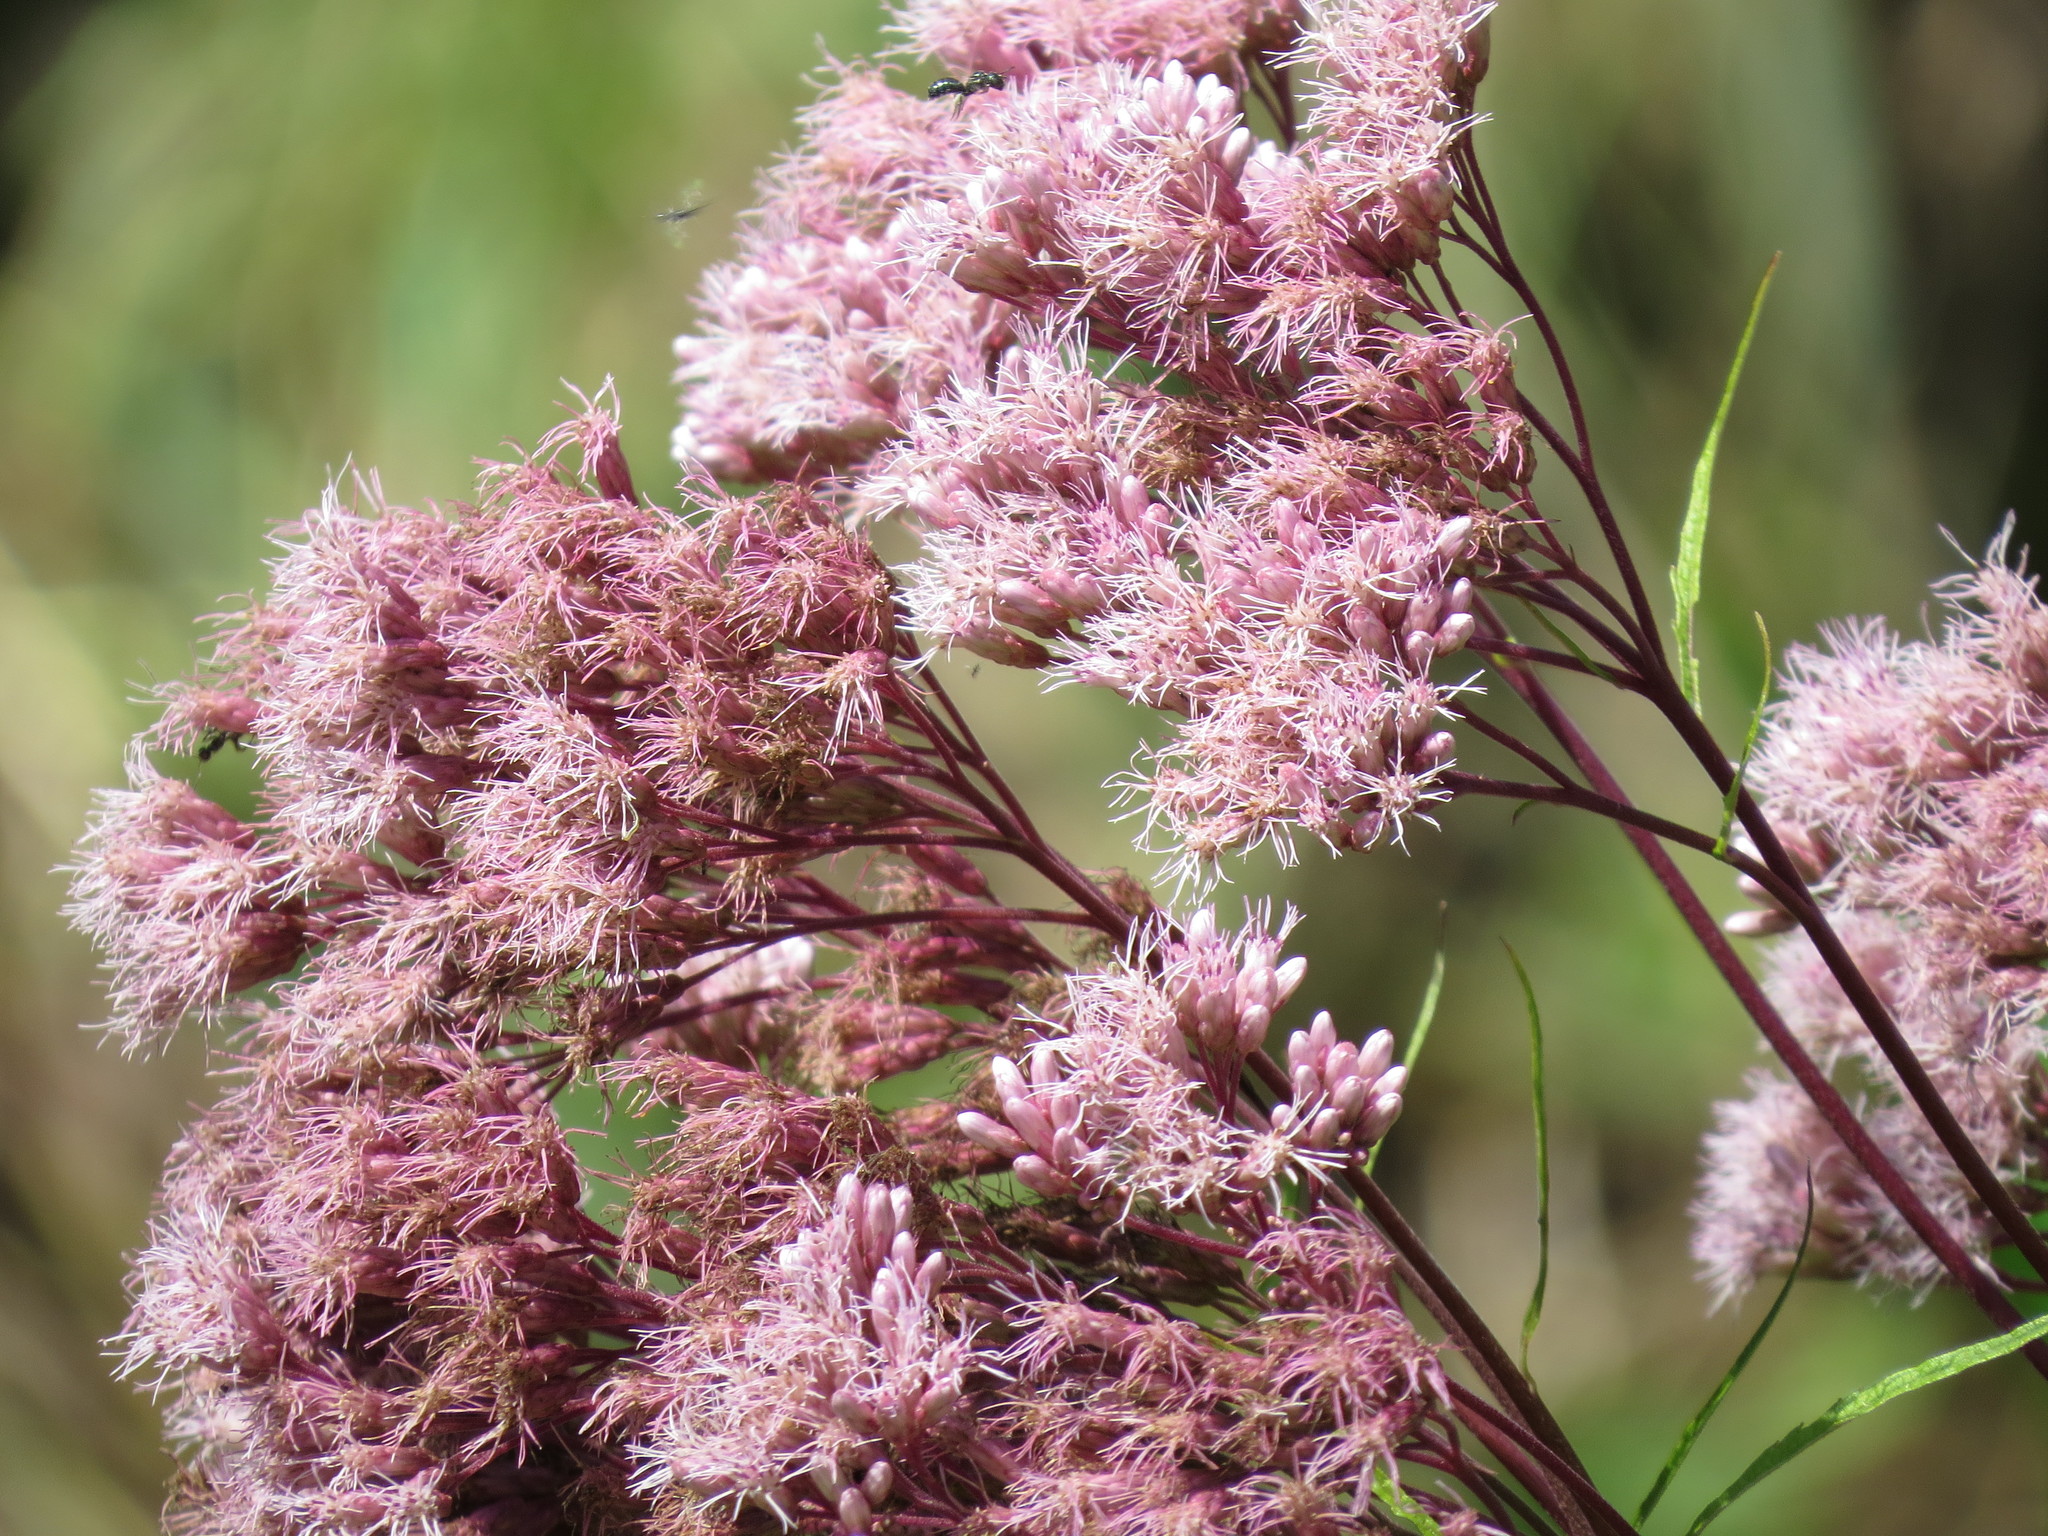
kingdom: Plantae
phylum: Tracheophyta
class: Magnoliopsida
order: Asterales
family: Asteraceae
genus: Eutrochium
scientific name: Eutrochium maculatum
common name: Spotted joe pye weed
